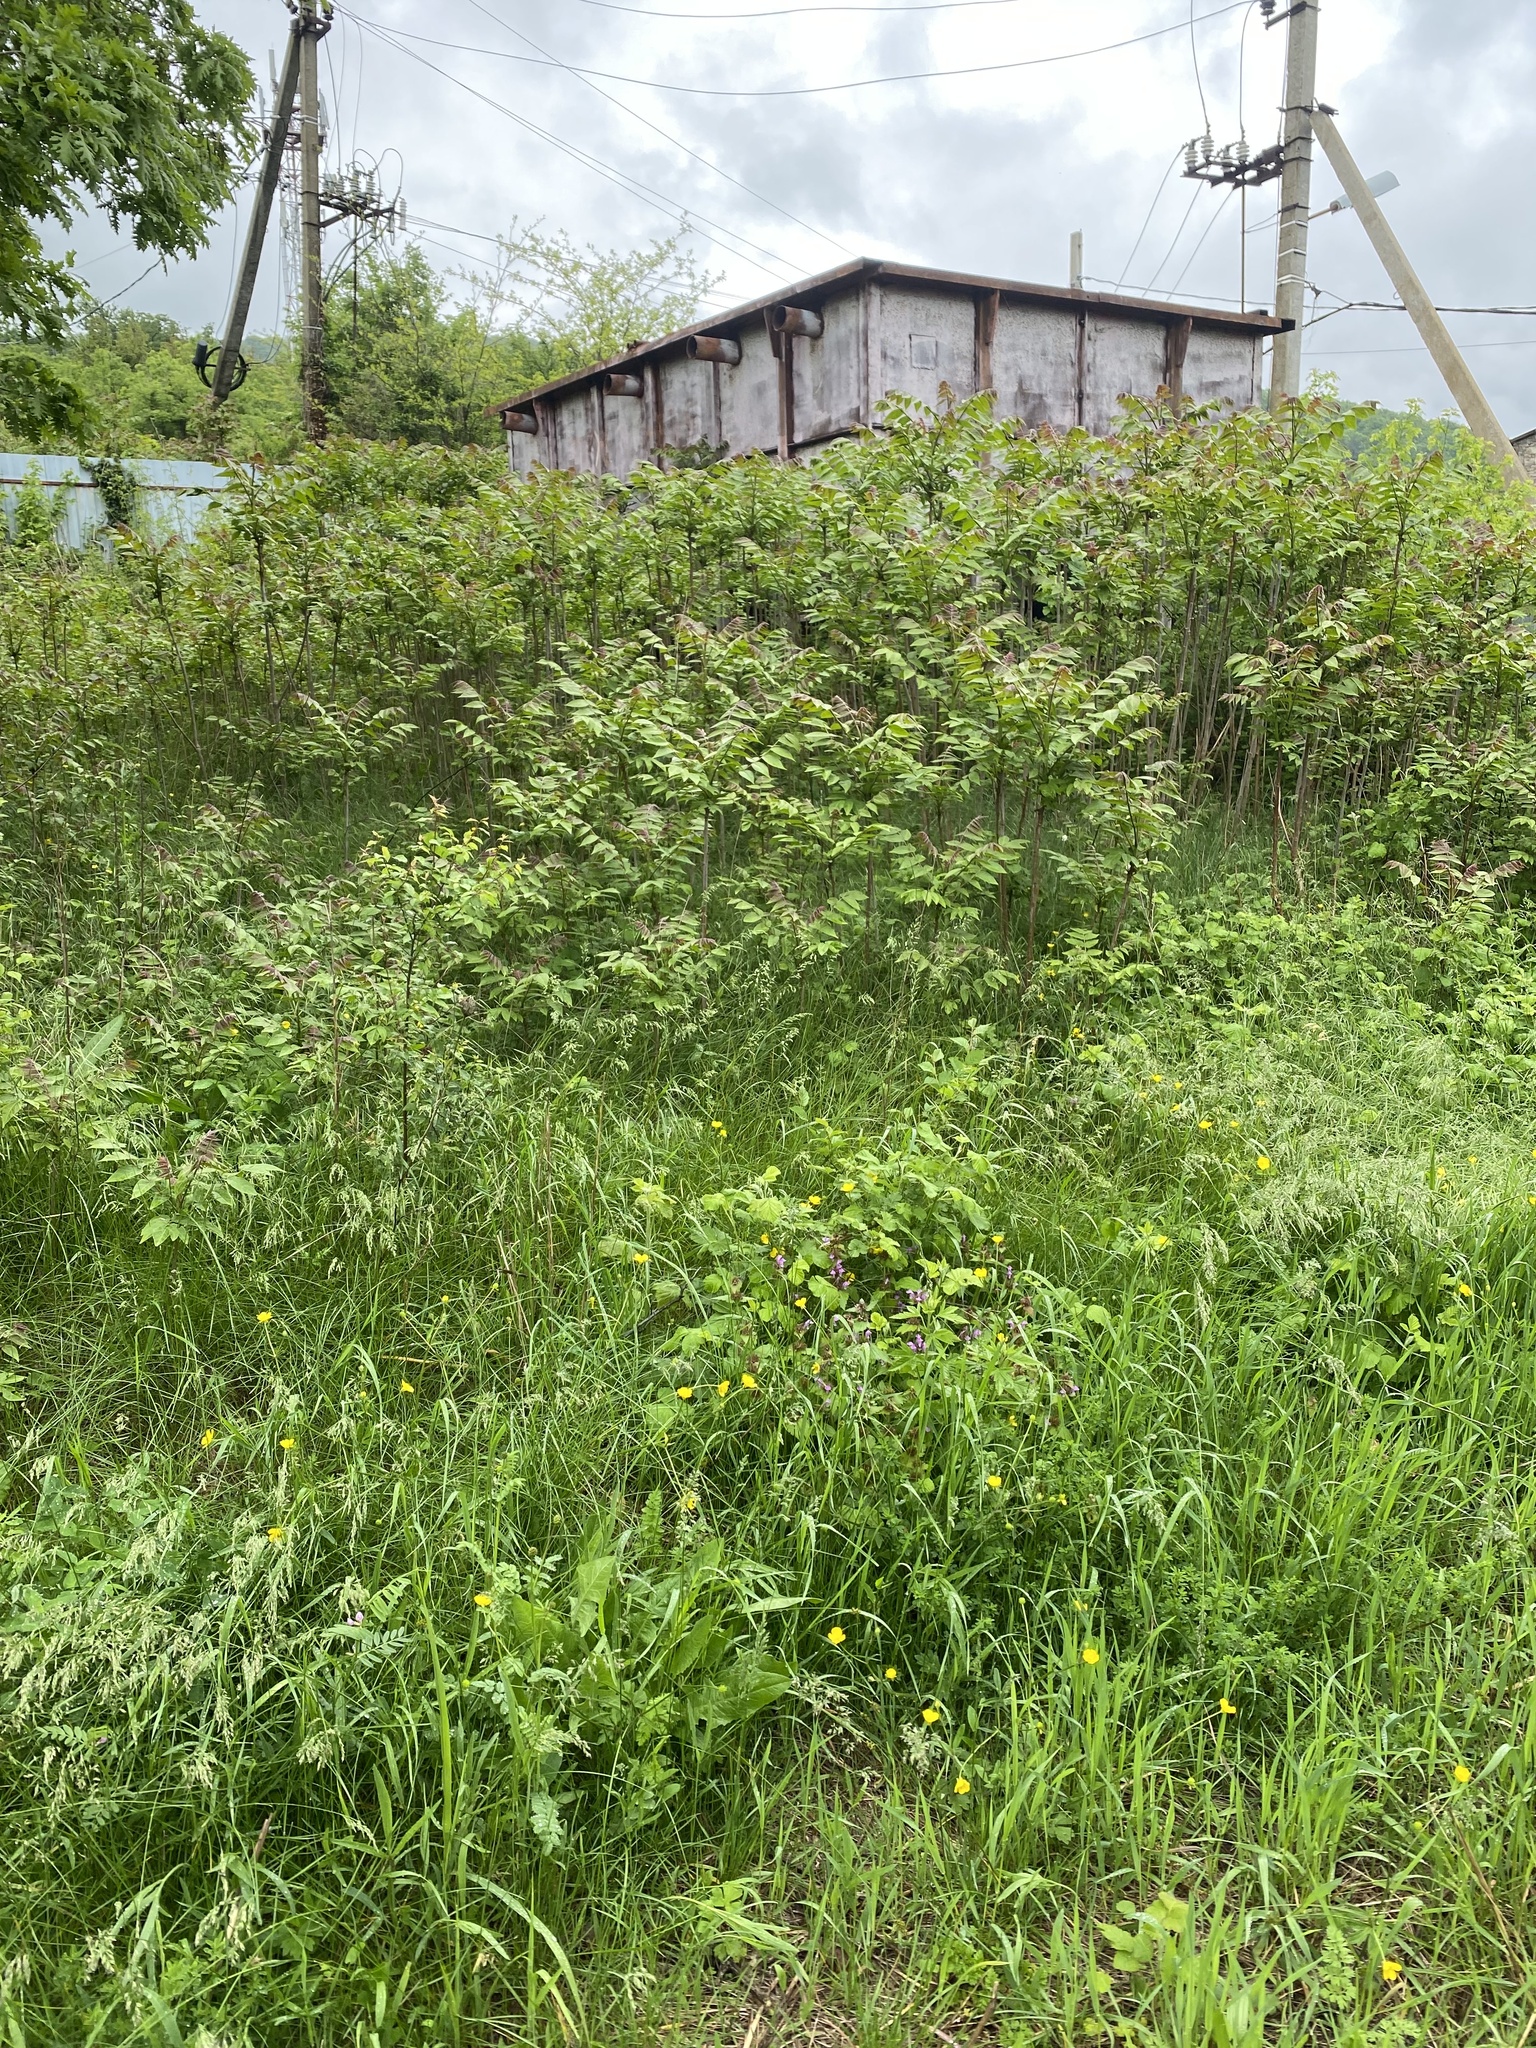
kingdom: Plantae
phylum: Tracheophyta
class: Magnoliopsida
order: Sapindales
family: Simaroubaceae
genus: Ailanthus
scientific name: Ailanthus altissima
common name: Tree-of-heaven
